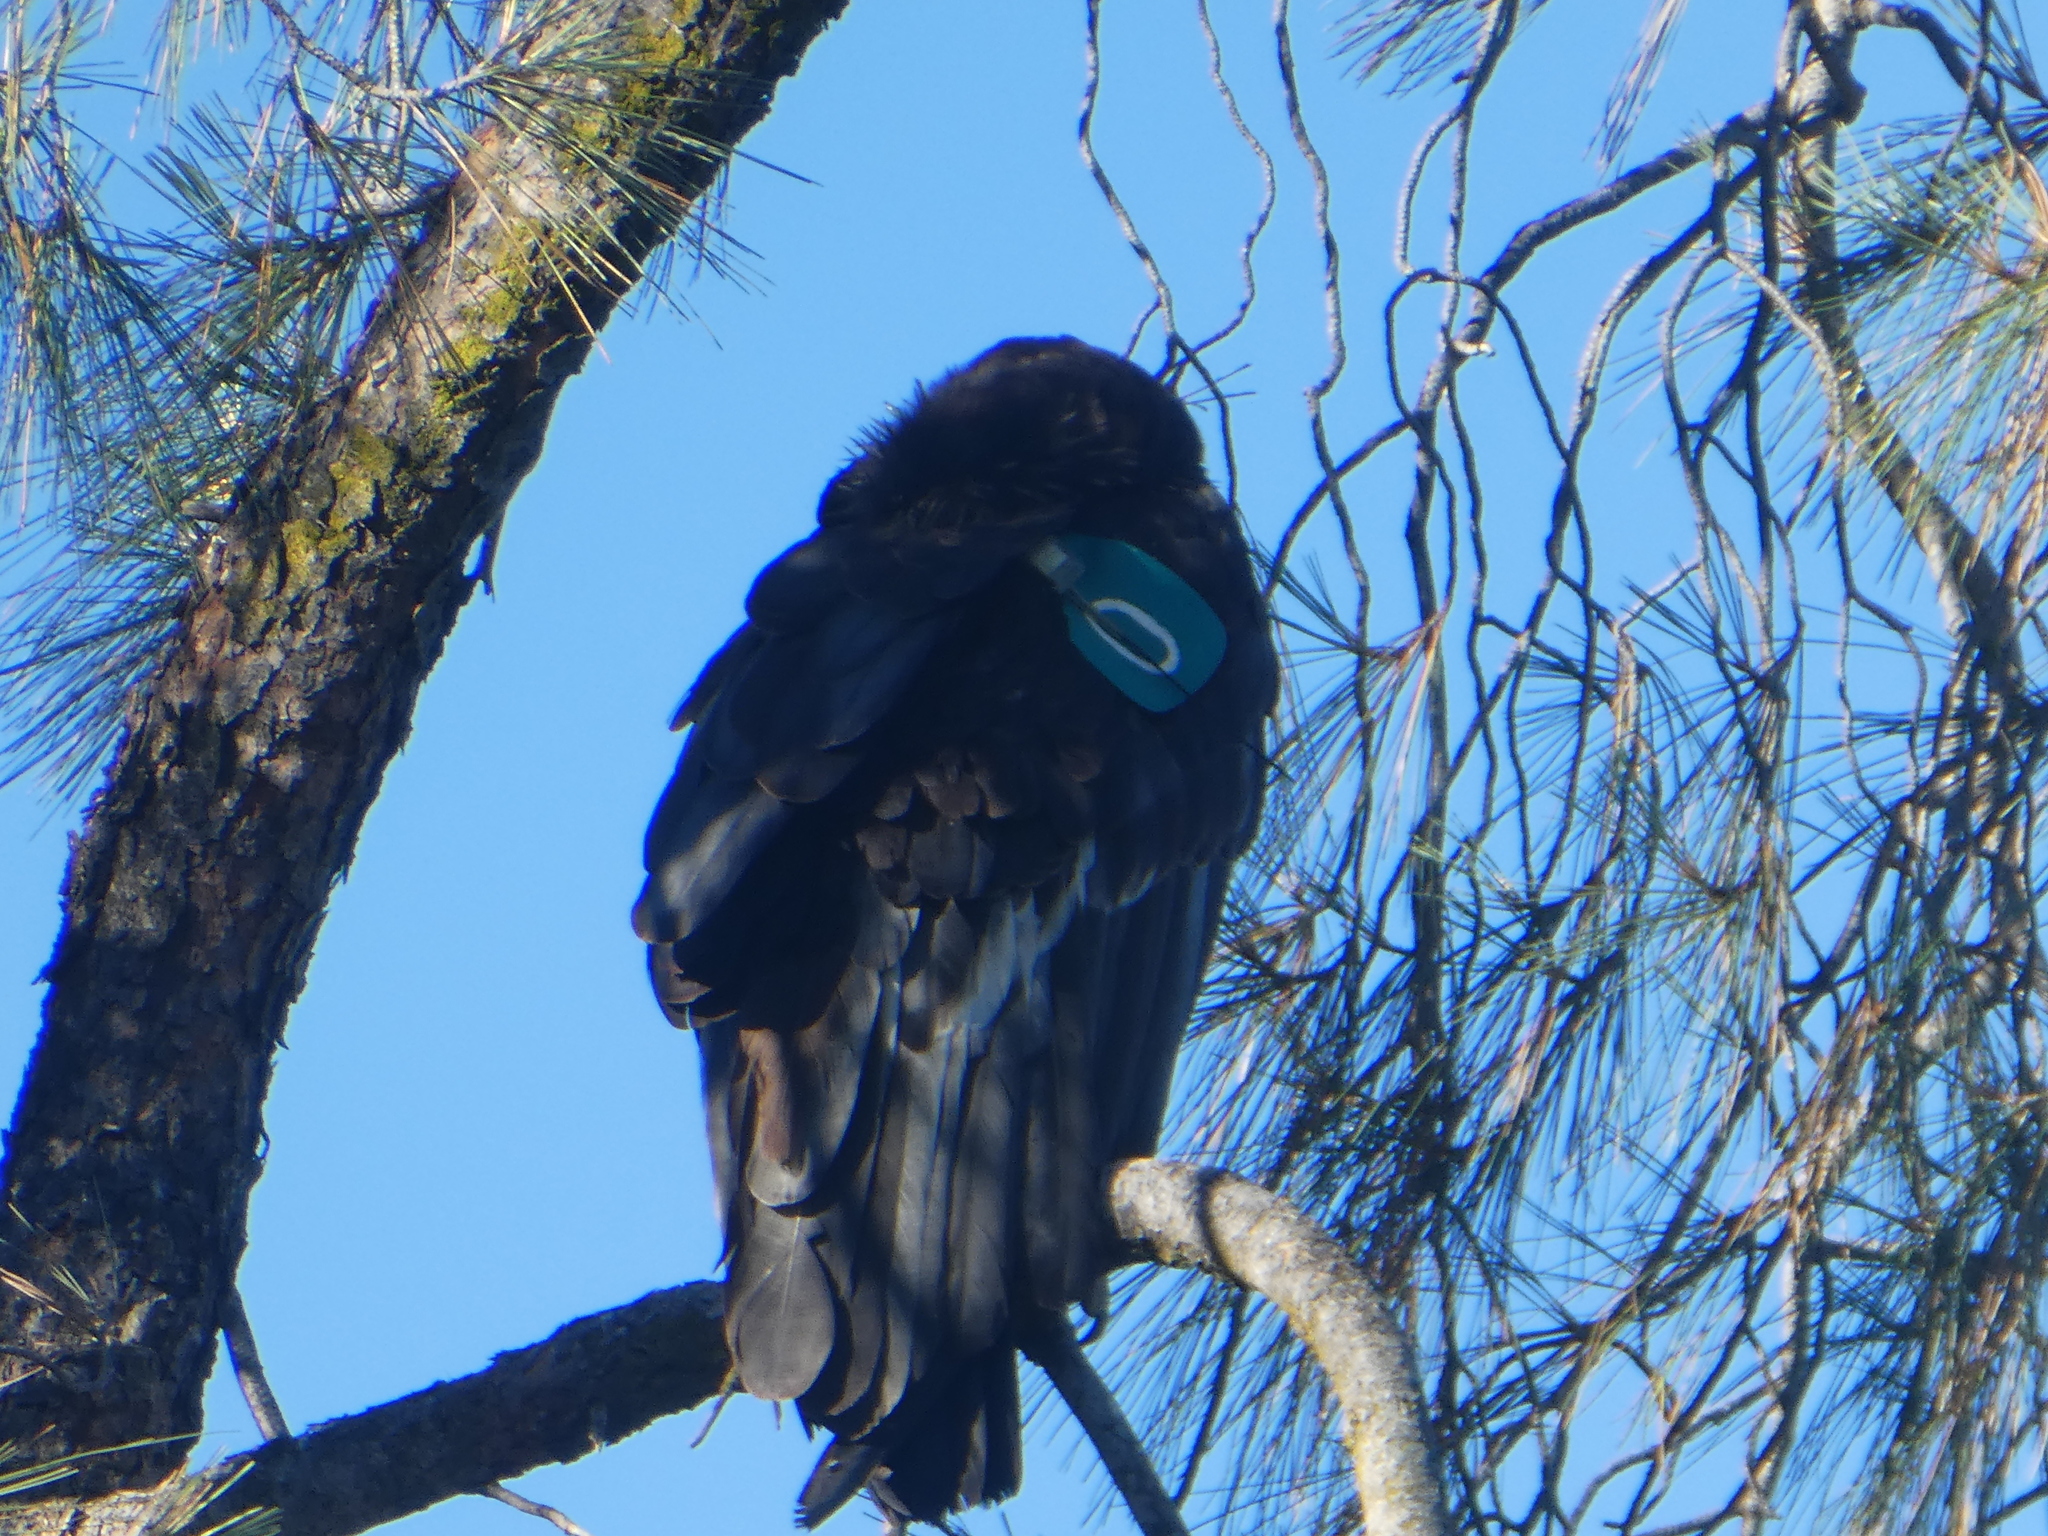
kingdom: Animalia
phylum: Chordata
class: Aves
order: Accipitriformes
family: Cathartidae
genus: Gymnogyps
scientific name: Gymnogyps californianus
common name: California condor
